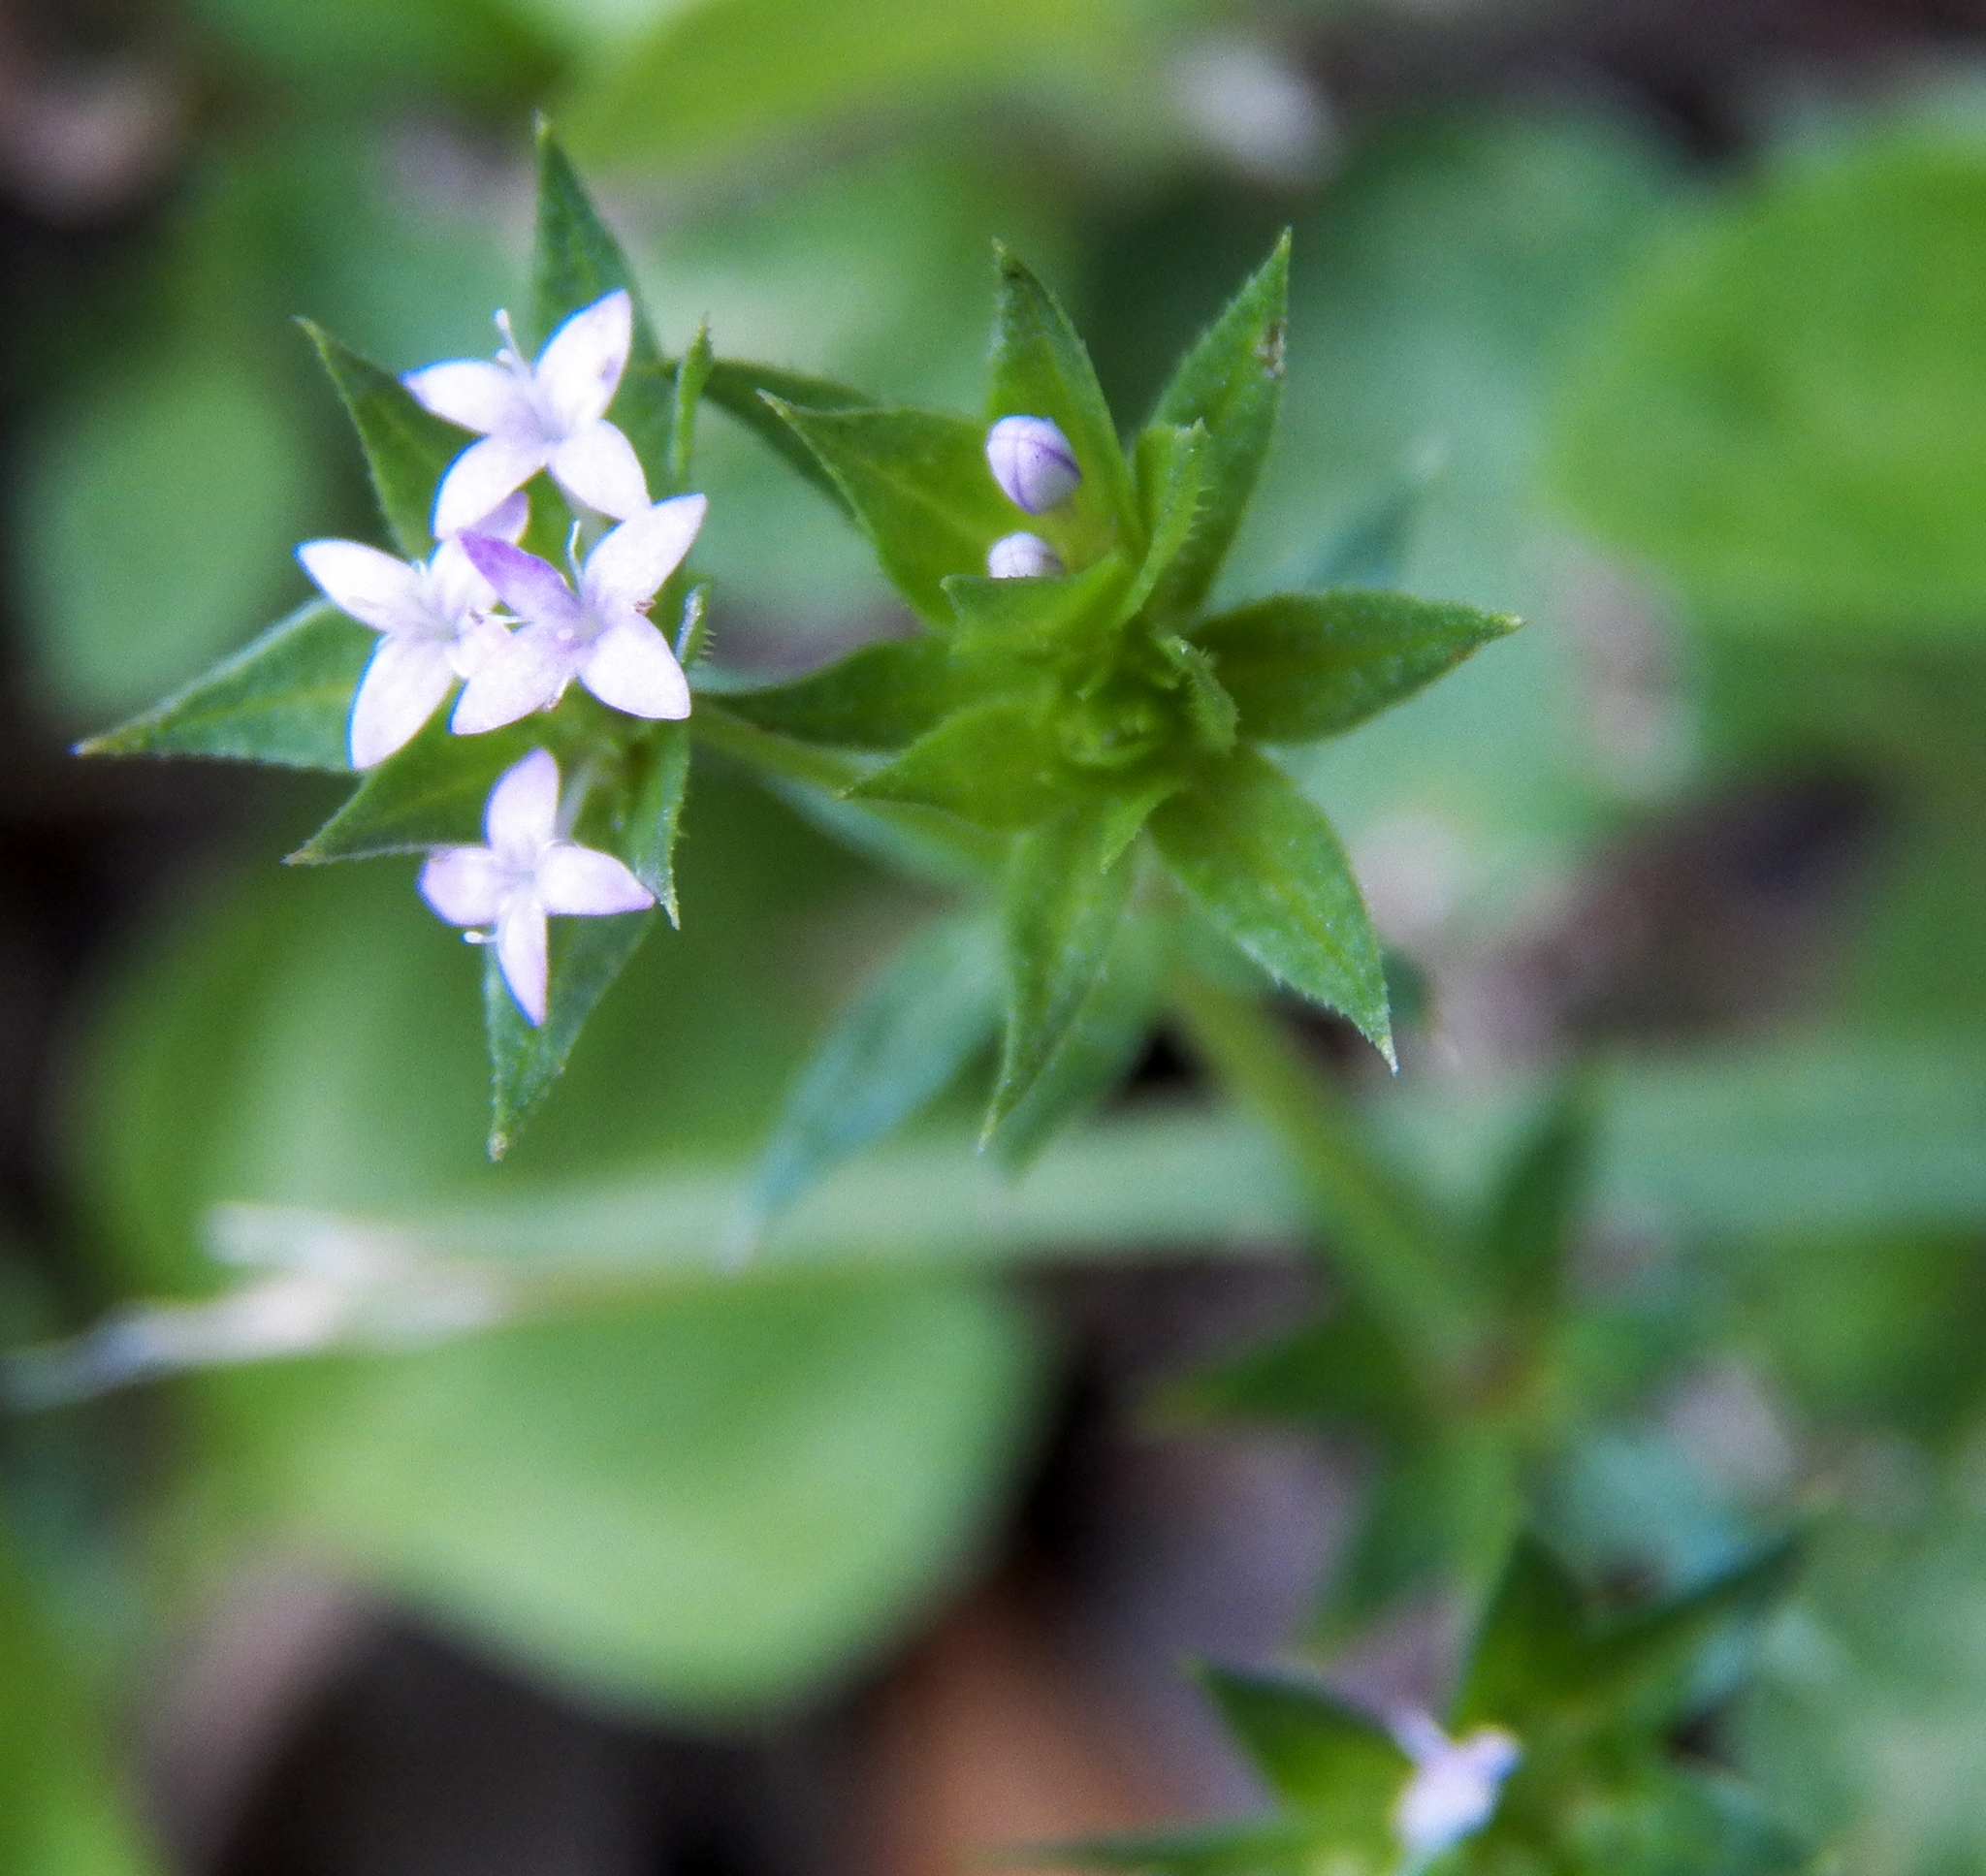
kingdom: Plantae
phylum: Tracheophyta
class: Magnoliopsida
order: Gentianales
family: Rubiaceae
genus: Sherardia
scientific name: Sherardia arvensis
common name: Field madder
